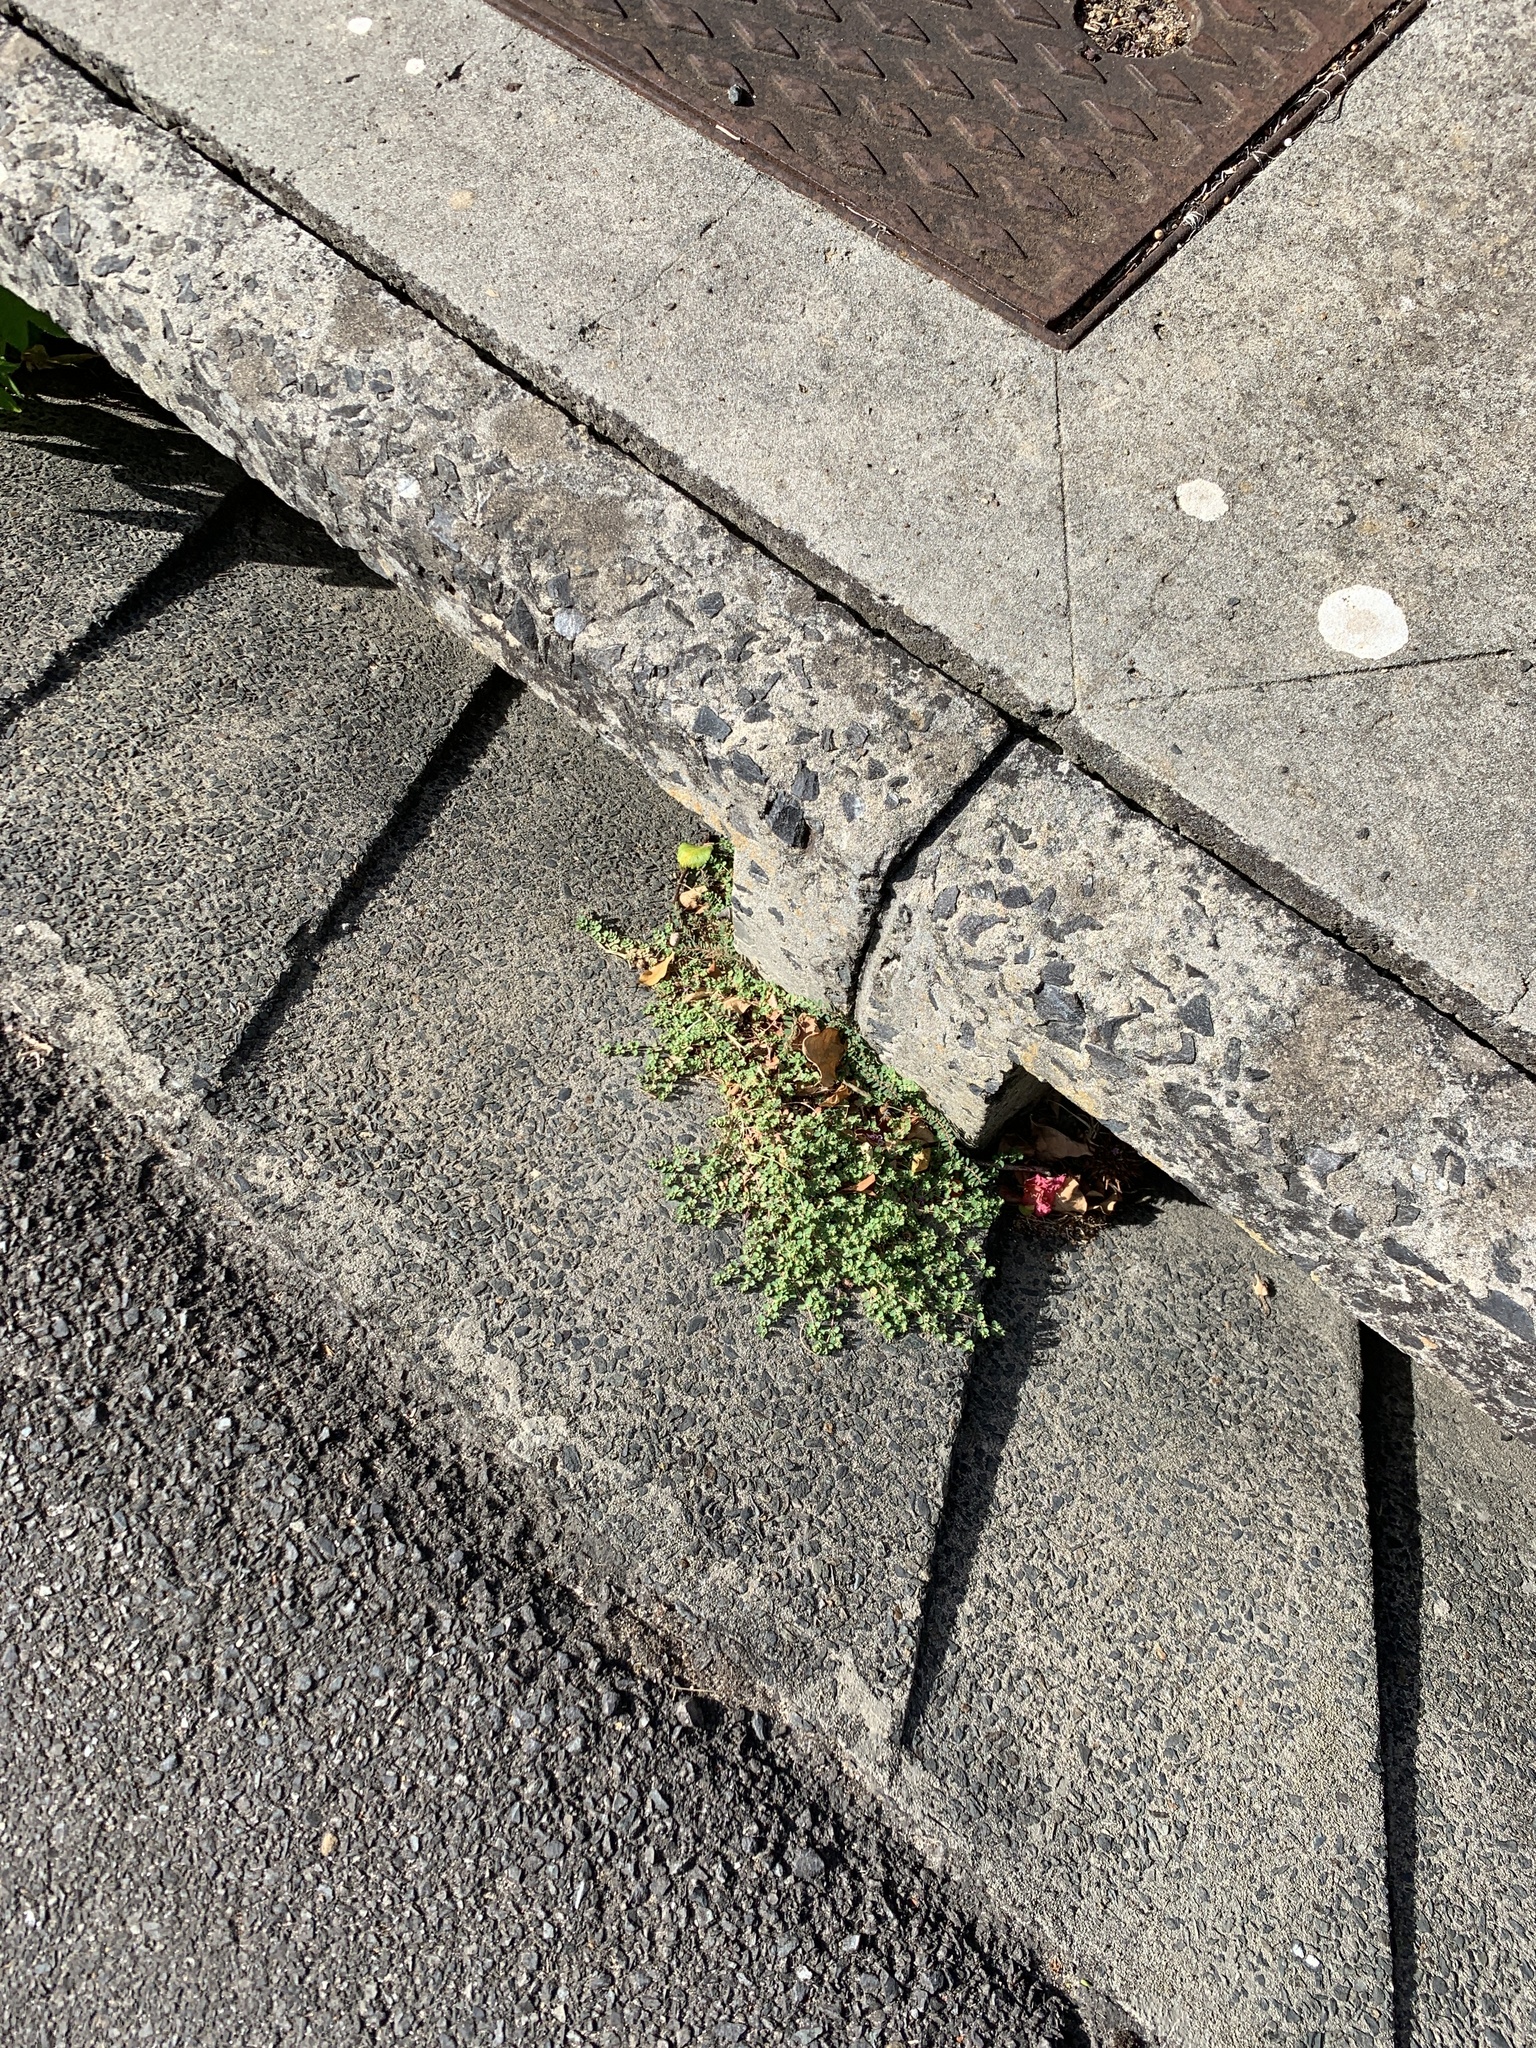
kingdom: Plantae
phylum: Tracheophyta
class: Magnoliopsida
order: Malpighiales
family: Euphorbiaceae
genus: Euphorbia
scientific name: Euphorbia serpens
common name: Matted sandmat
